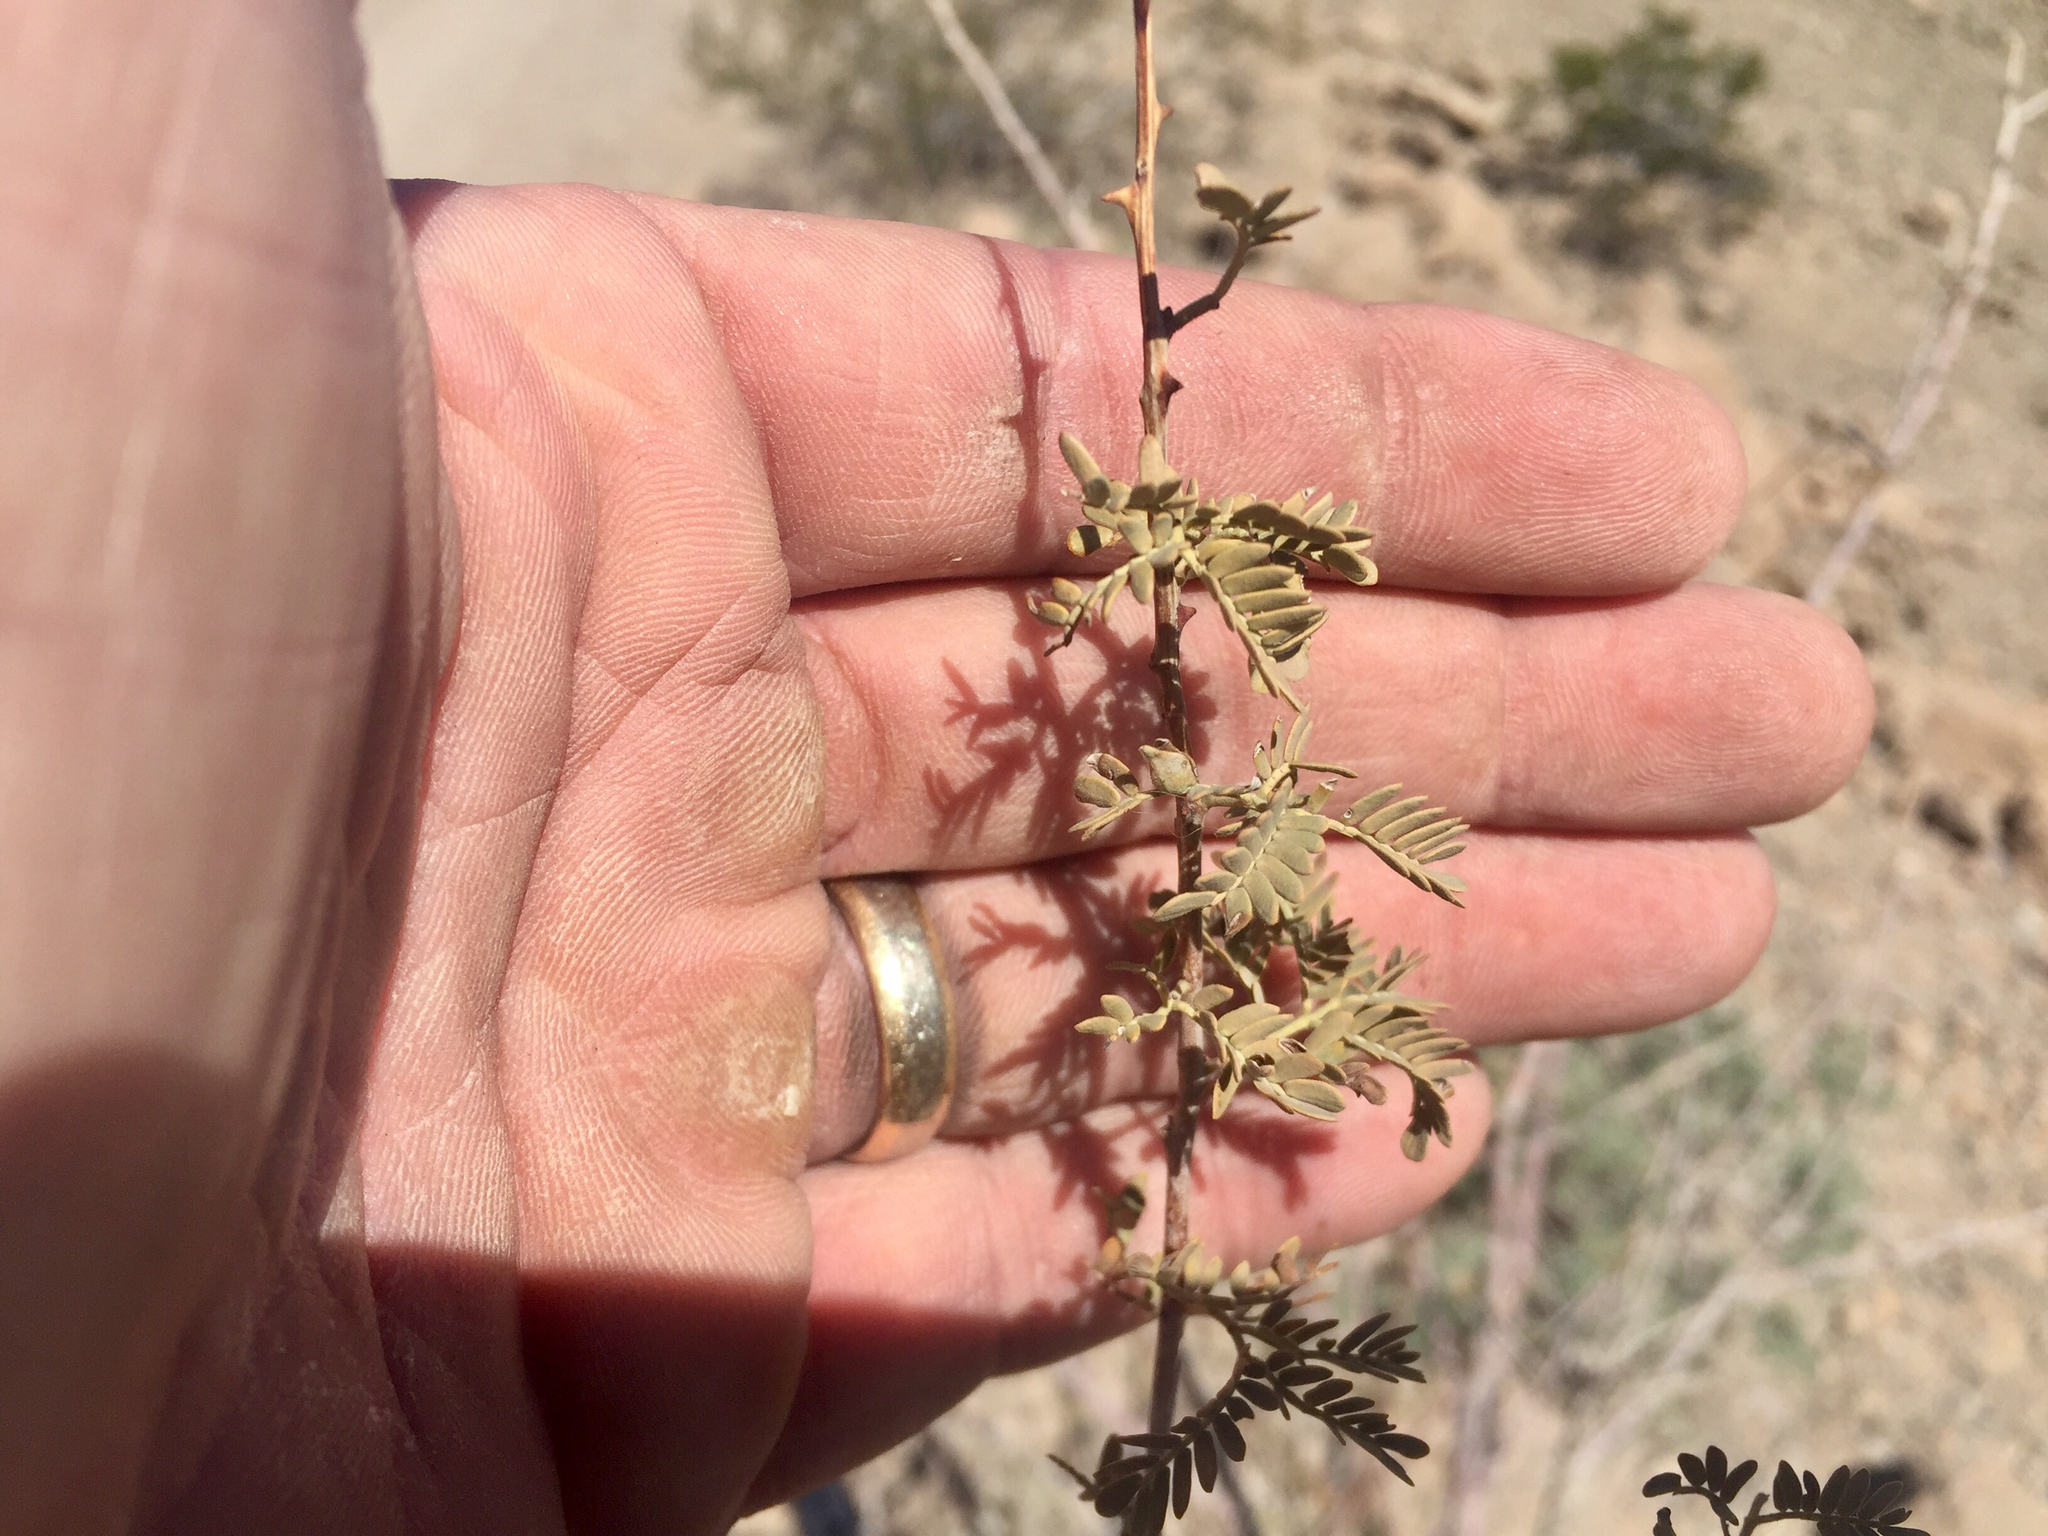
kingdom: Plantae
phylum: Tracheophyta
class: Magnoliopsida
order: Fabales
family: Fabaceae
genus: Senegalia
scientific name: Senegalia greggii
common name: Texas-mimosa
